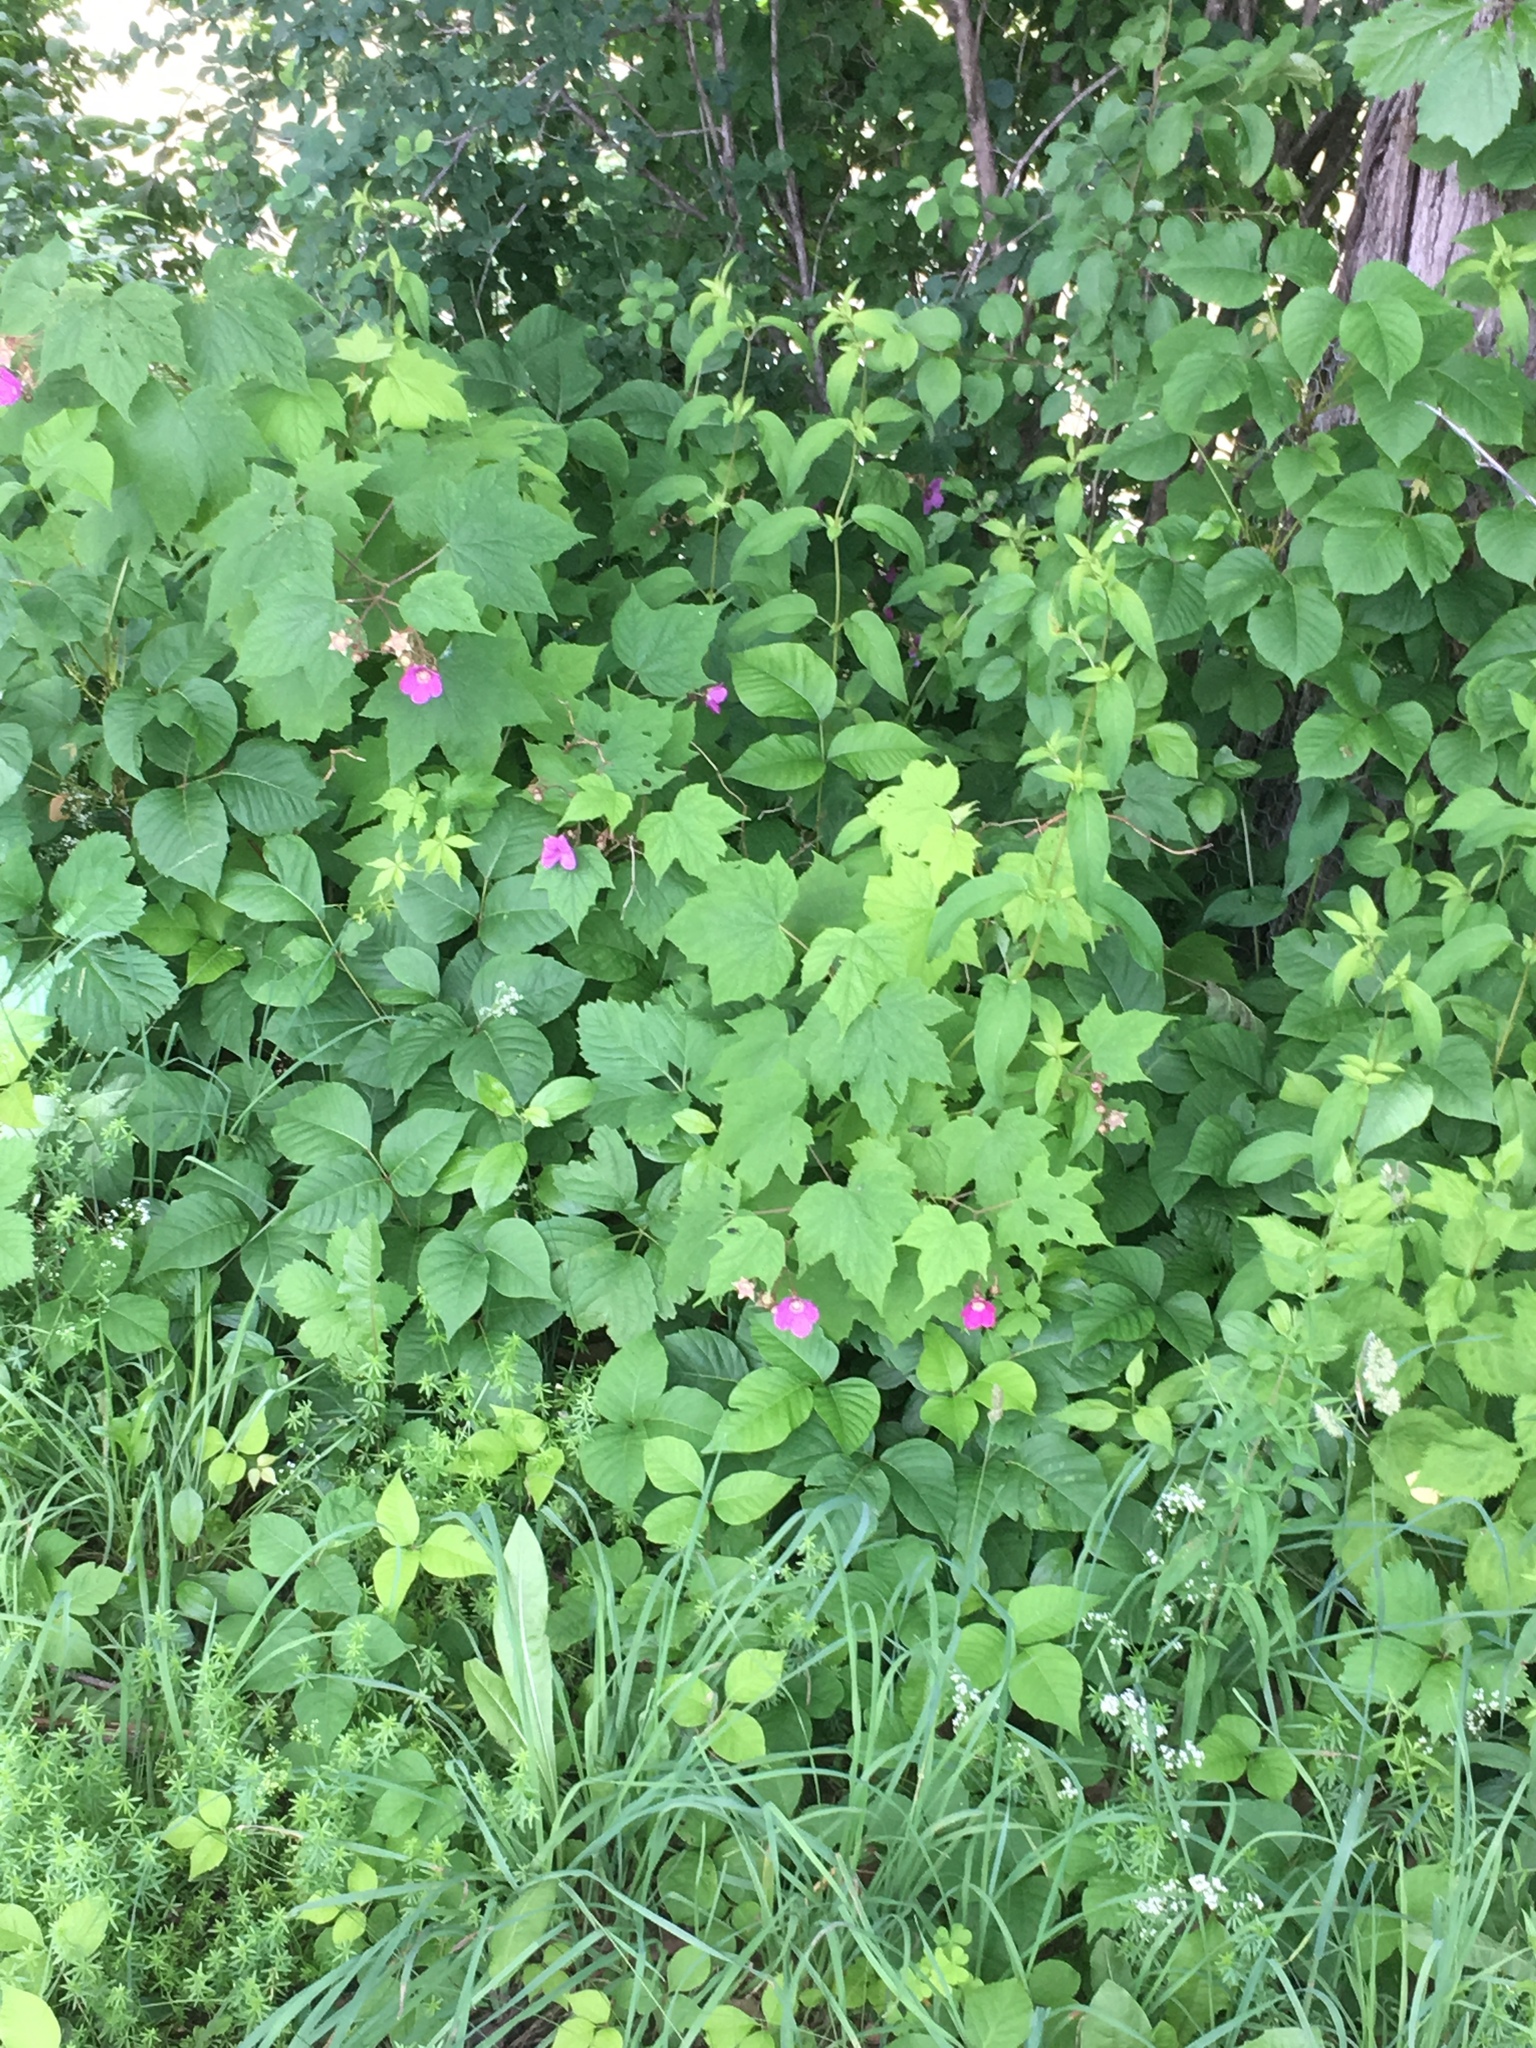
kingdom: Plantae
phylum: Tracheophyta
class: Magnoliopsida
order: Rosales
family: Rosaceae
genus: Rubus
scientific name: Rubus odoratus
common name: Purple-flowered raspberry
